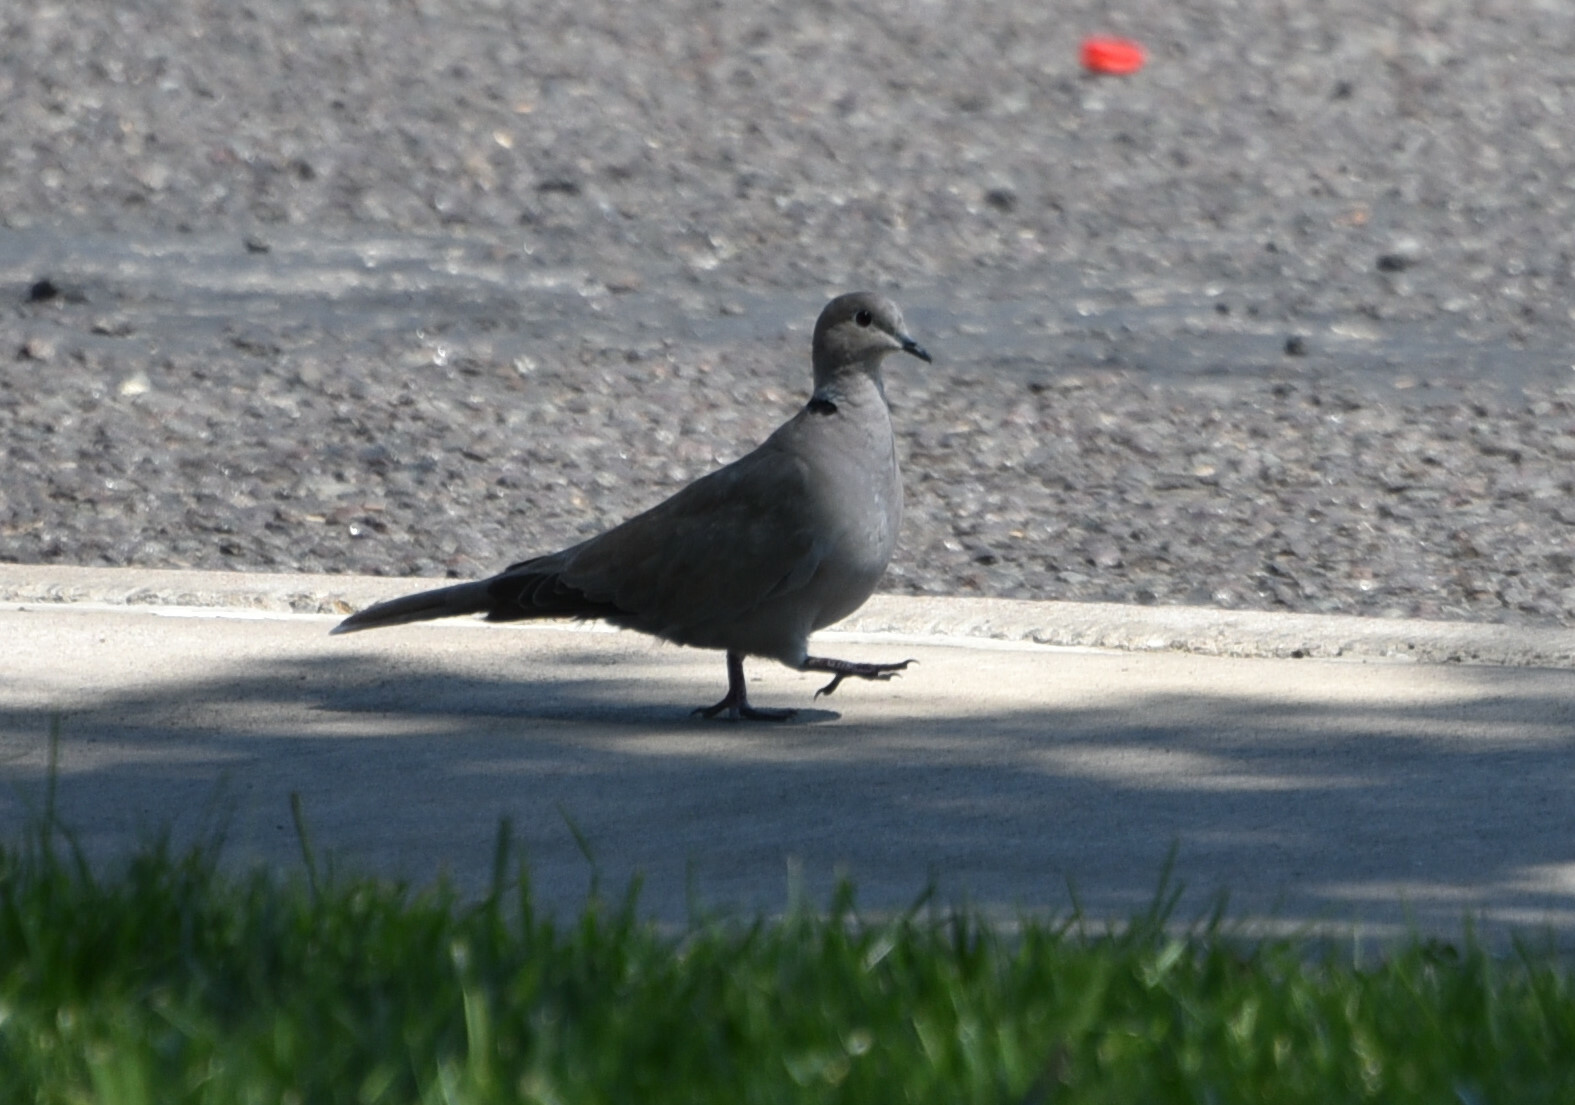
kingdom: Animalia
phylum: Chordata
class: Aves
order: Columbiformes
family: Columbidae
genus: Streptopelia
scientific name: Streptopelia decaocto
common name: Eurasian collared dove
